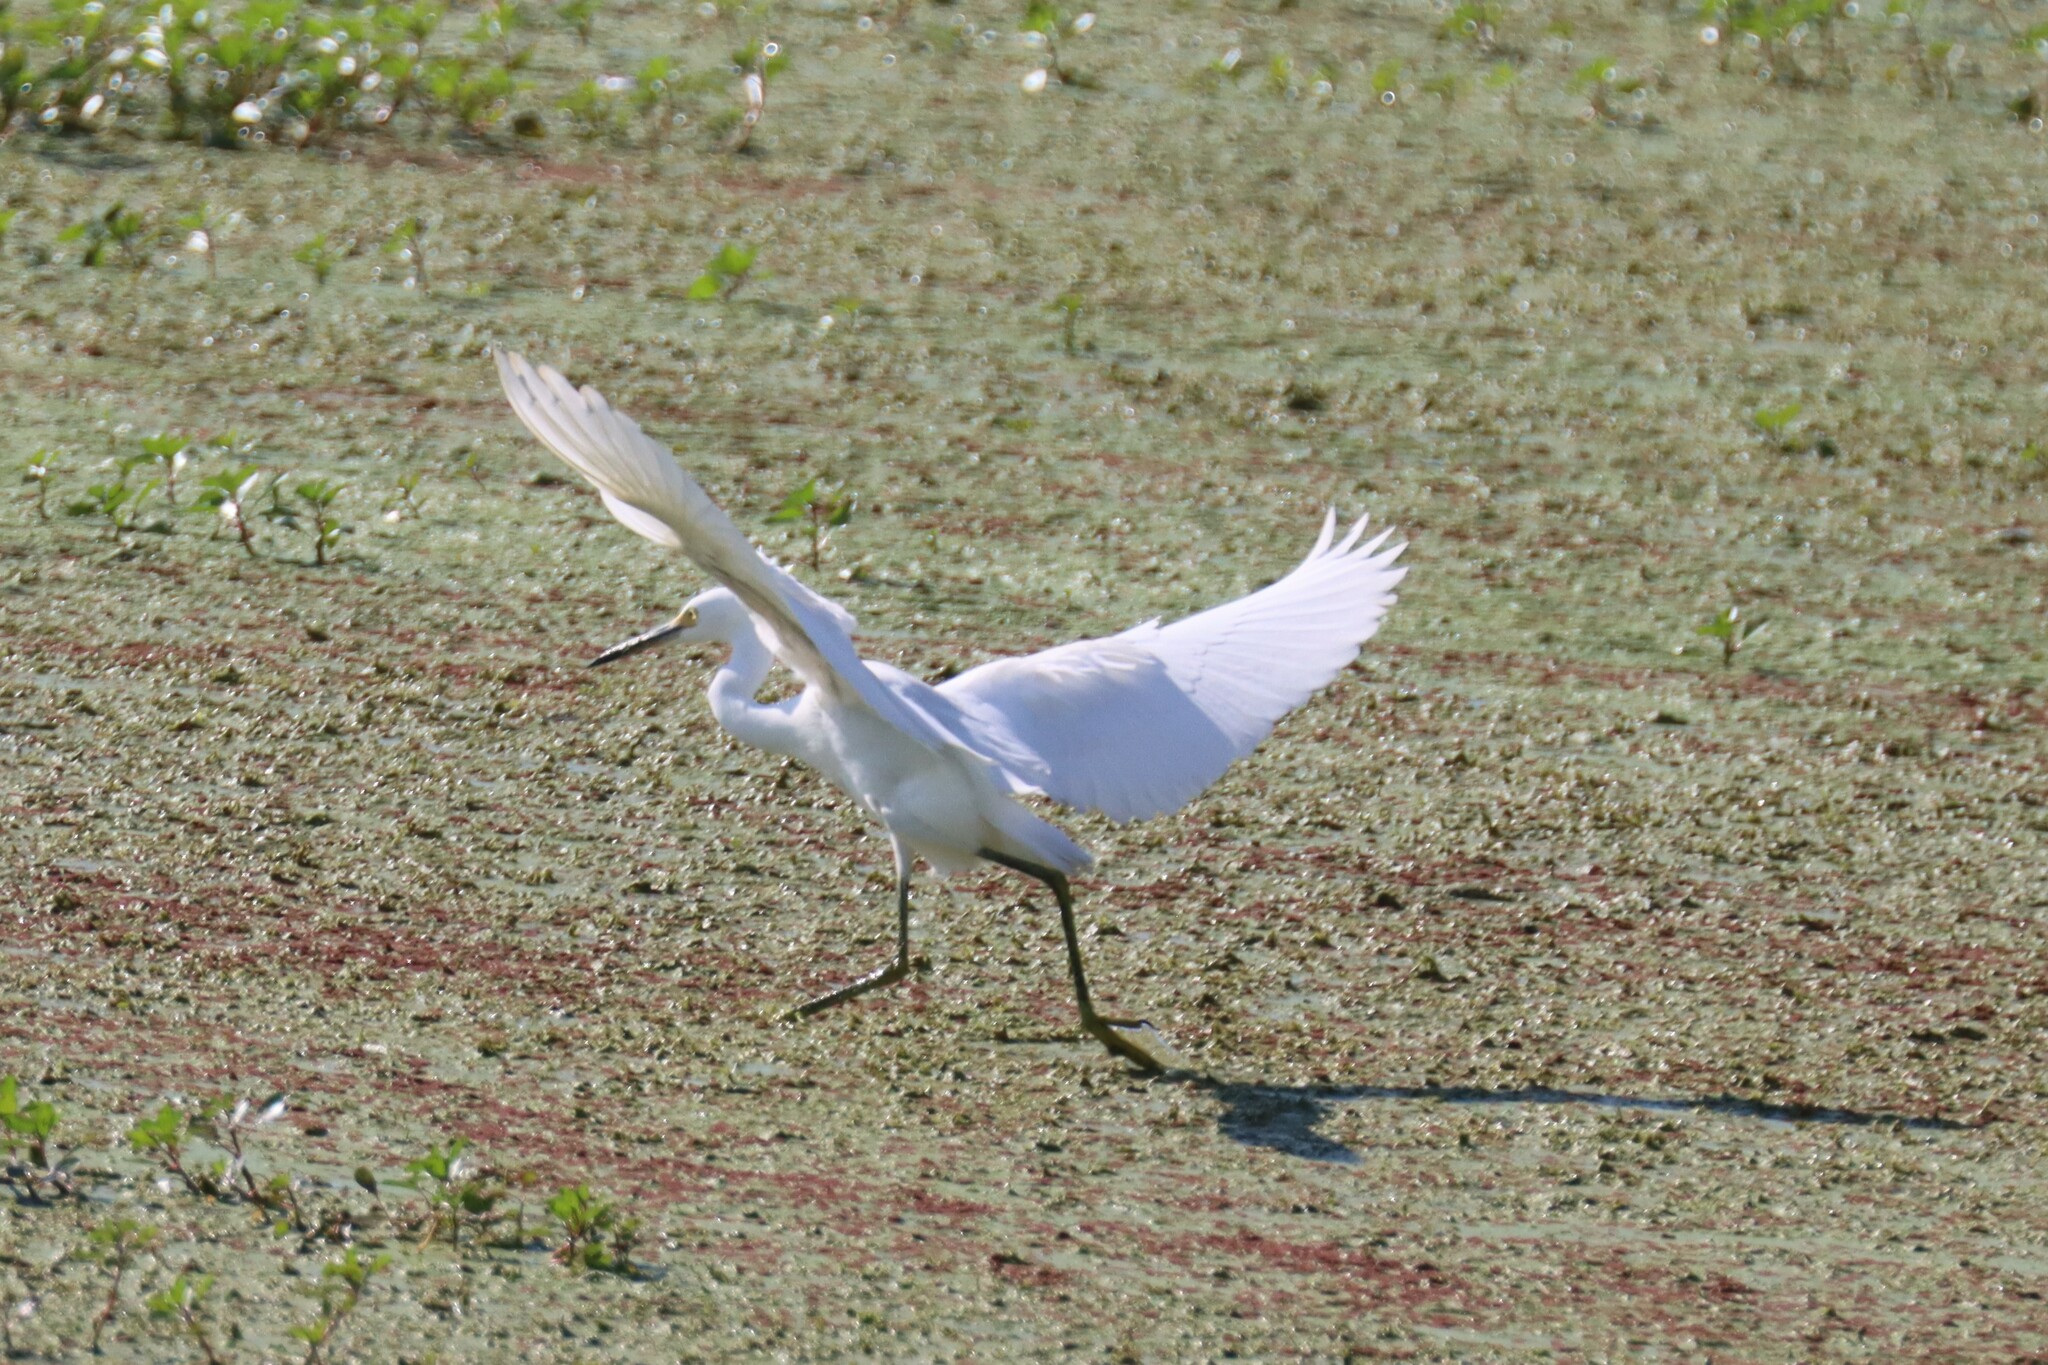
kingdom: Animalia
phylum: Chordata
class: Aves
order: Pelecaniformes
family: Ardeidae
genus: Egretta
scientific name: Egretta thula
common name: Snowy egret
